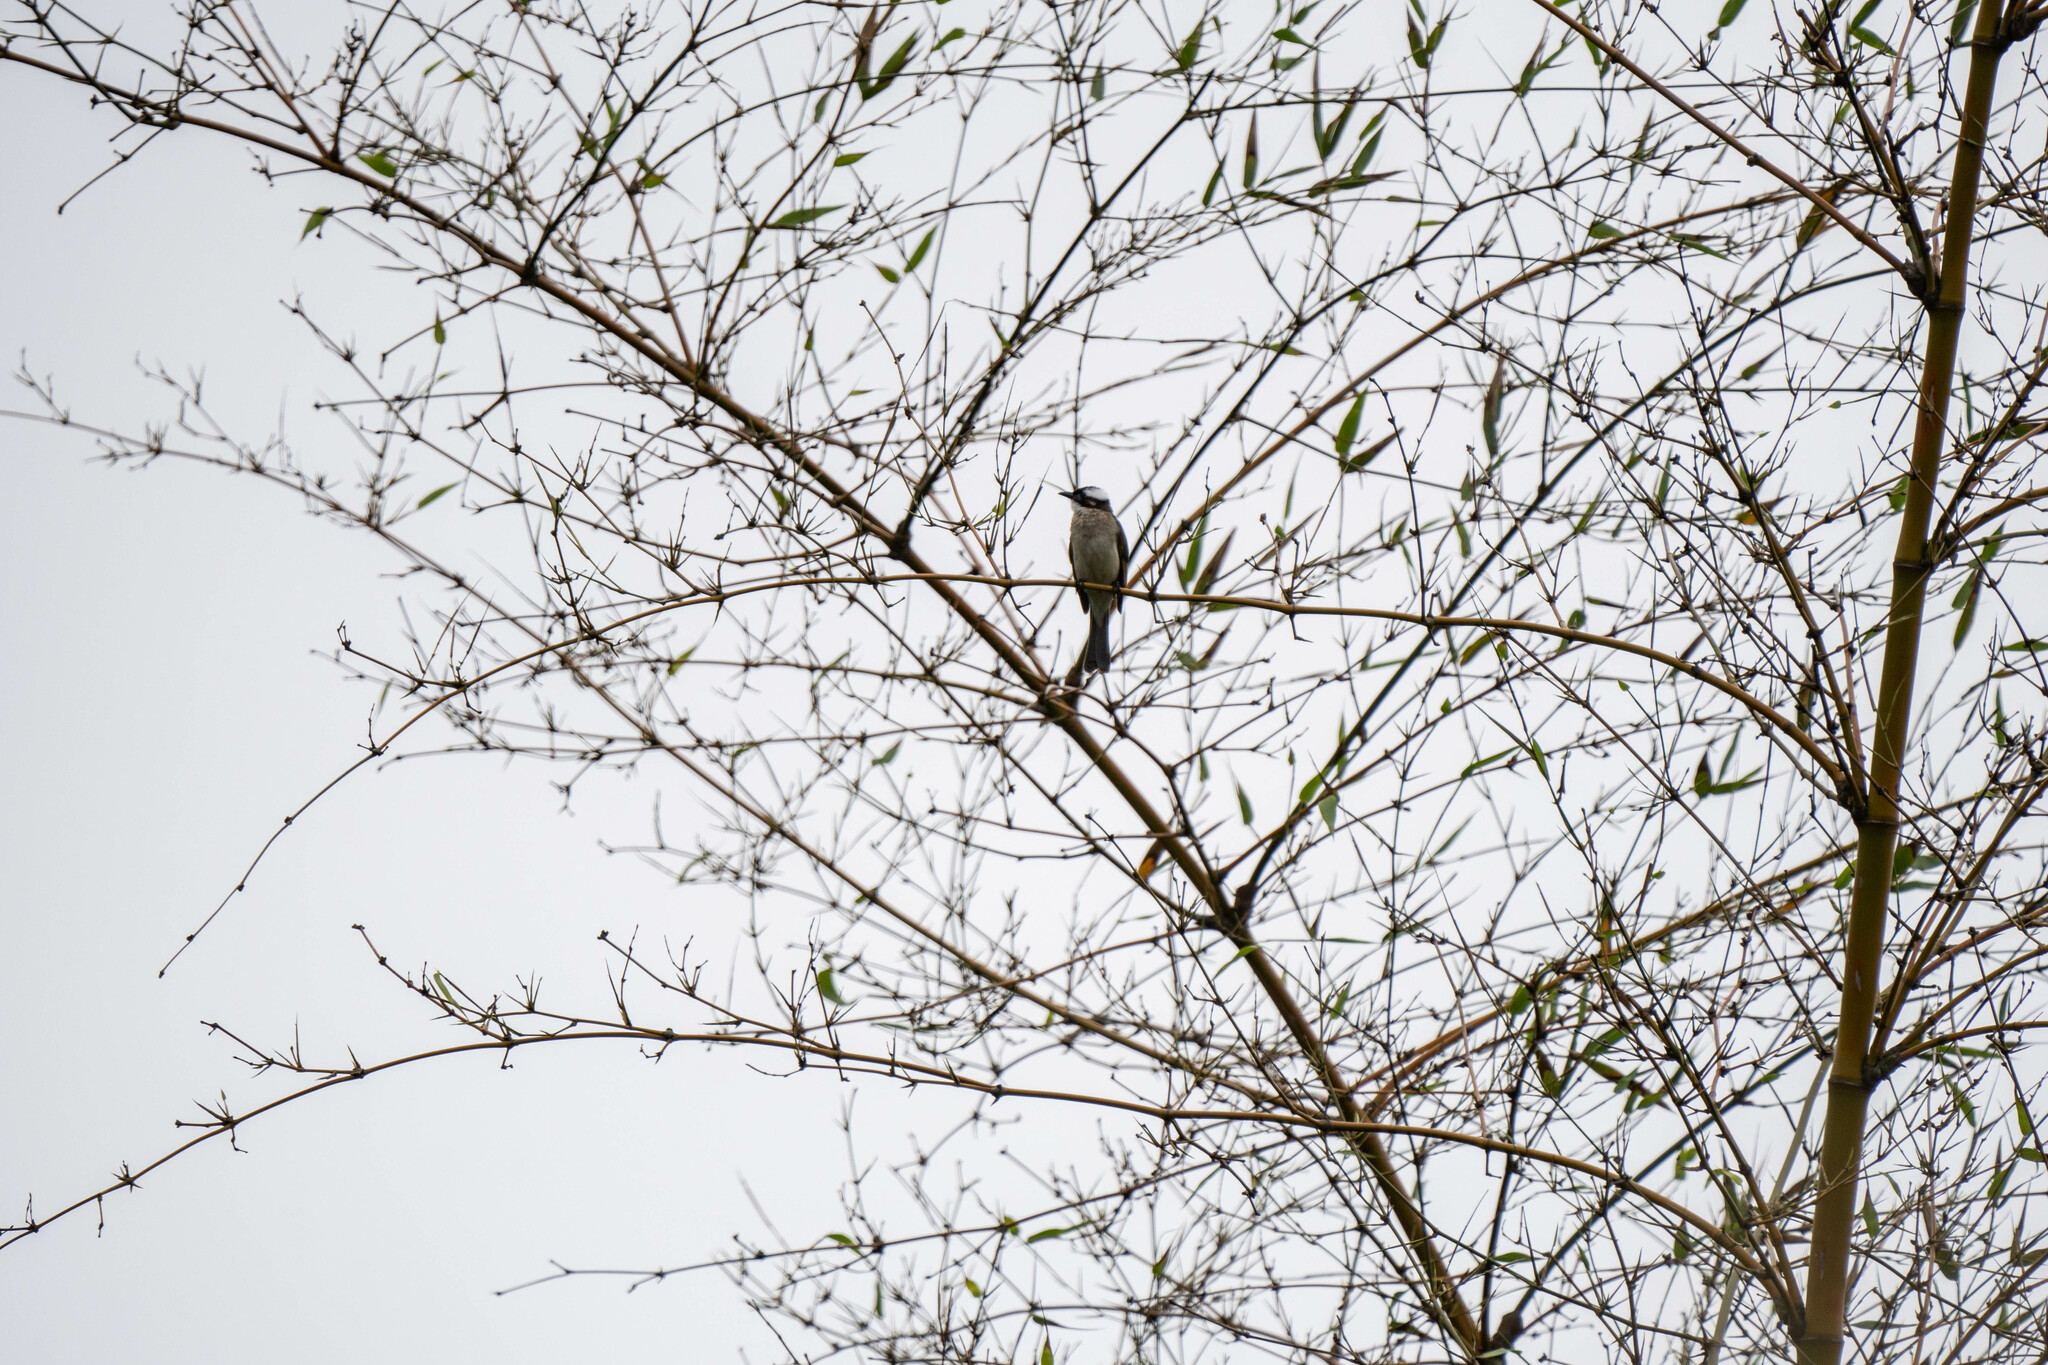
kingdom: Animalia
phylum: Chordata
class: Aves
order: Passeriformes
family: Pycnonotidae
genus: Pycnonotus
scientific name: Pycnonotus sinensis
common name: Light-vented bulbul
